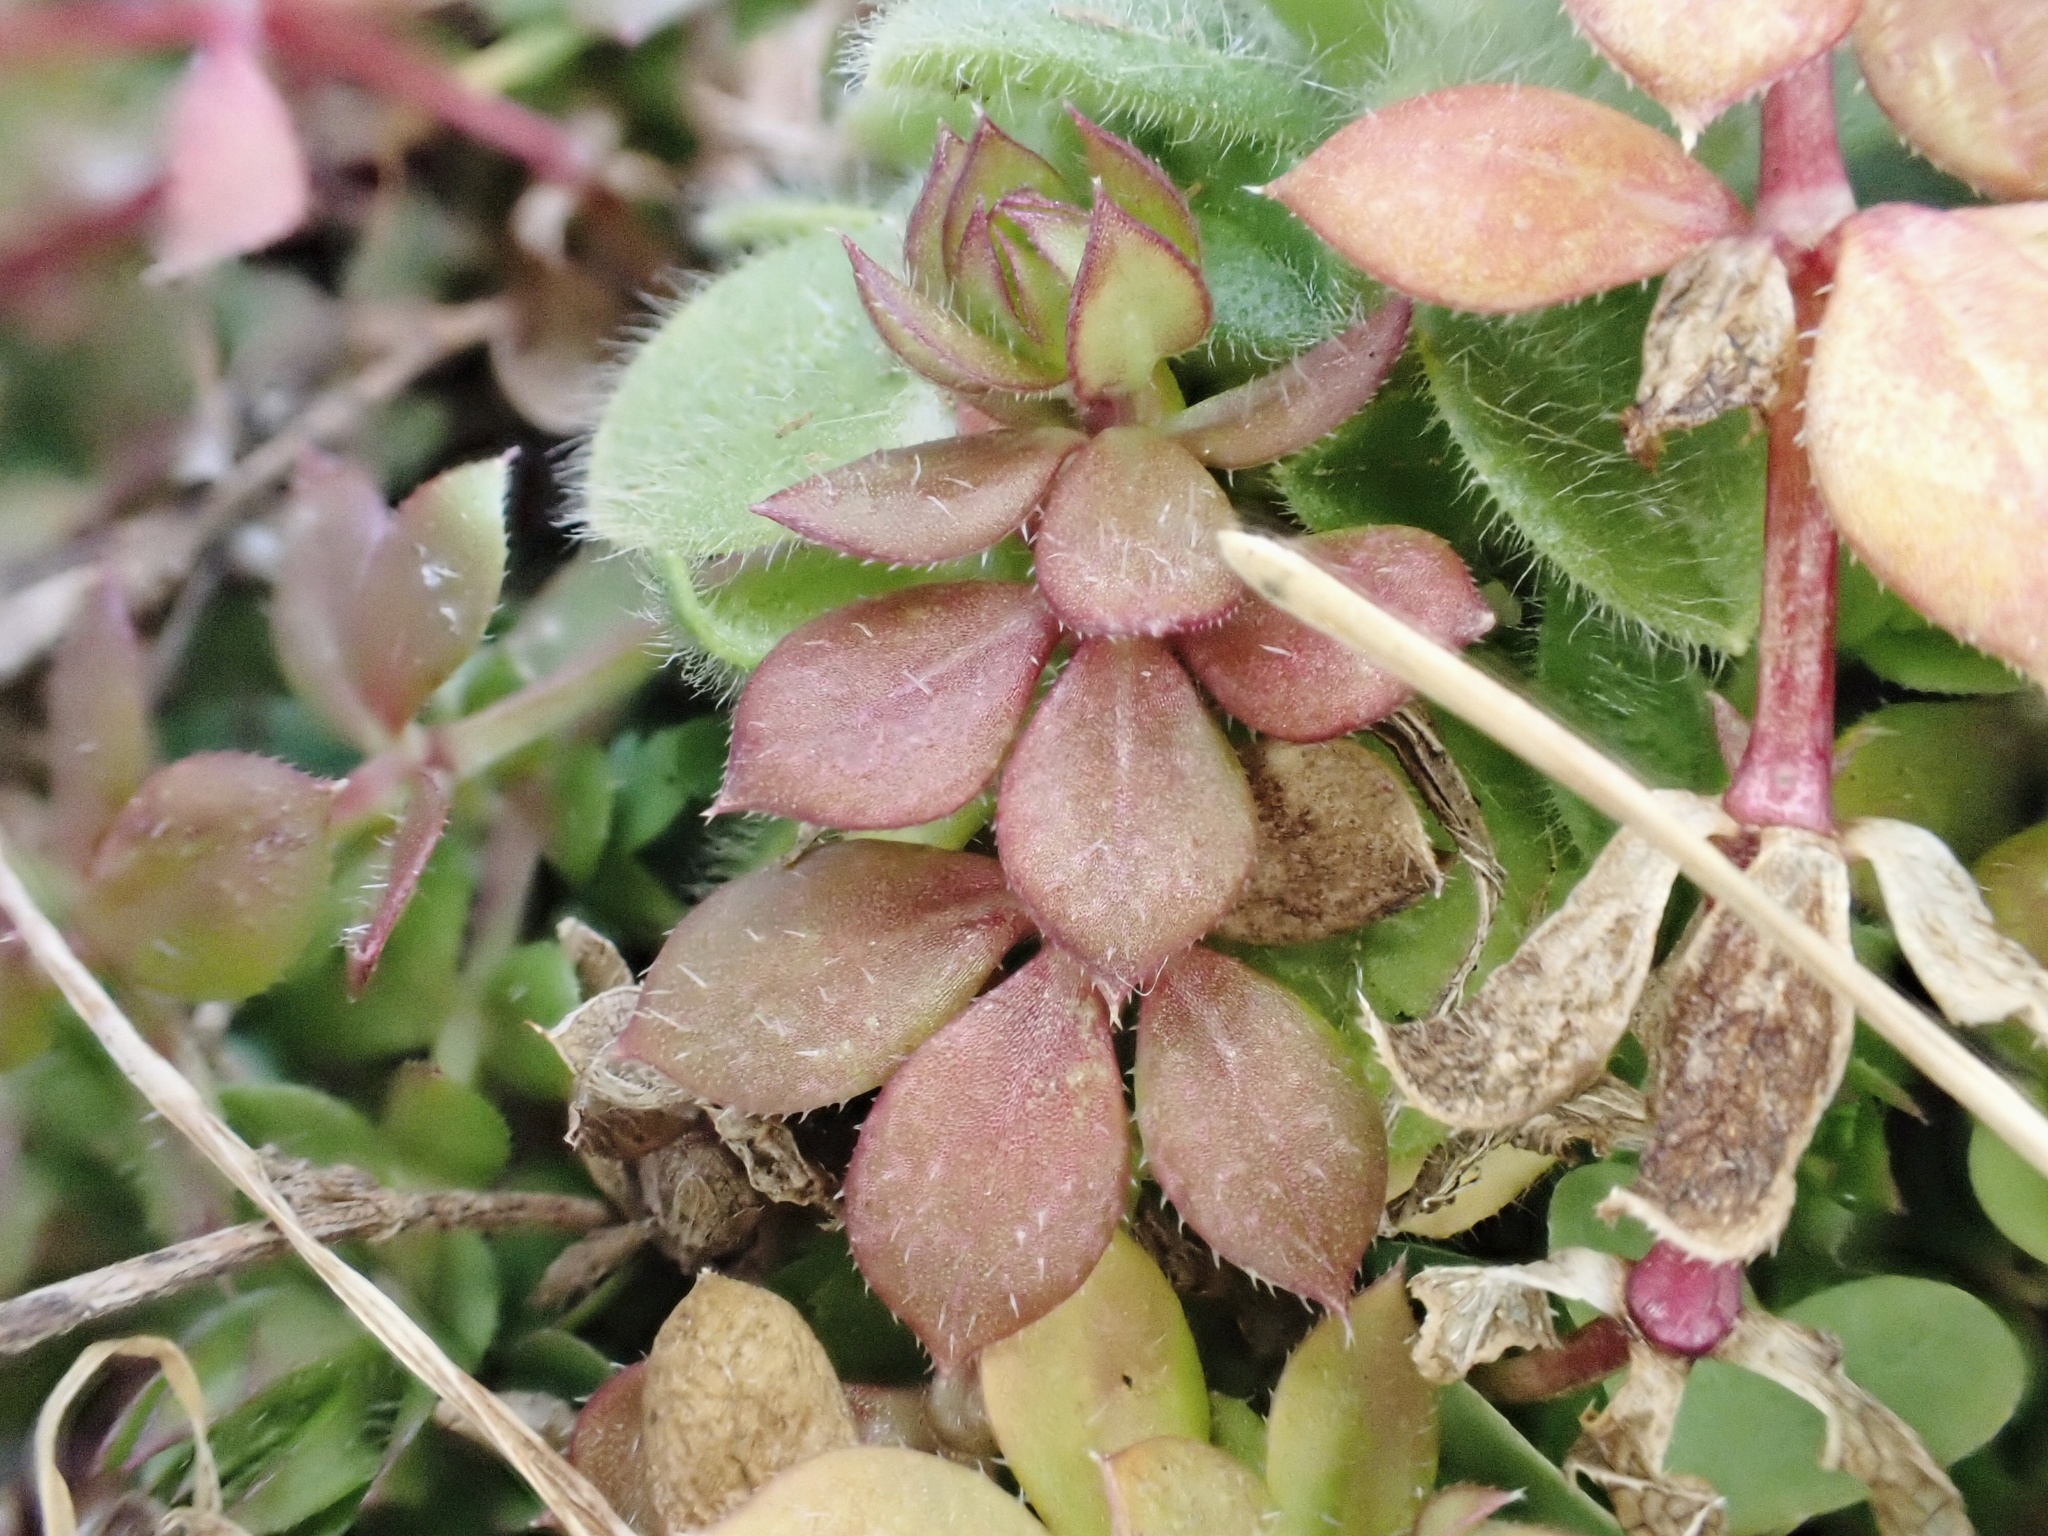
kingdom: Plantae
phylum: Tracheophyta
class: Magnoliopsida
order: Gentianales
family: Rubiaceae
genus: Sherardia
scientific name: Sherardia arvensis
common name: Field madder
